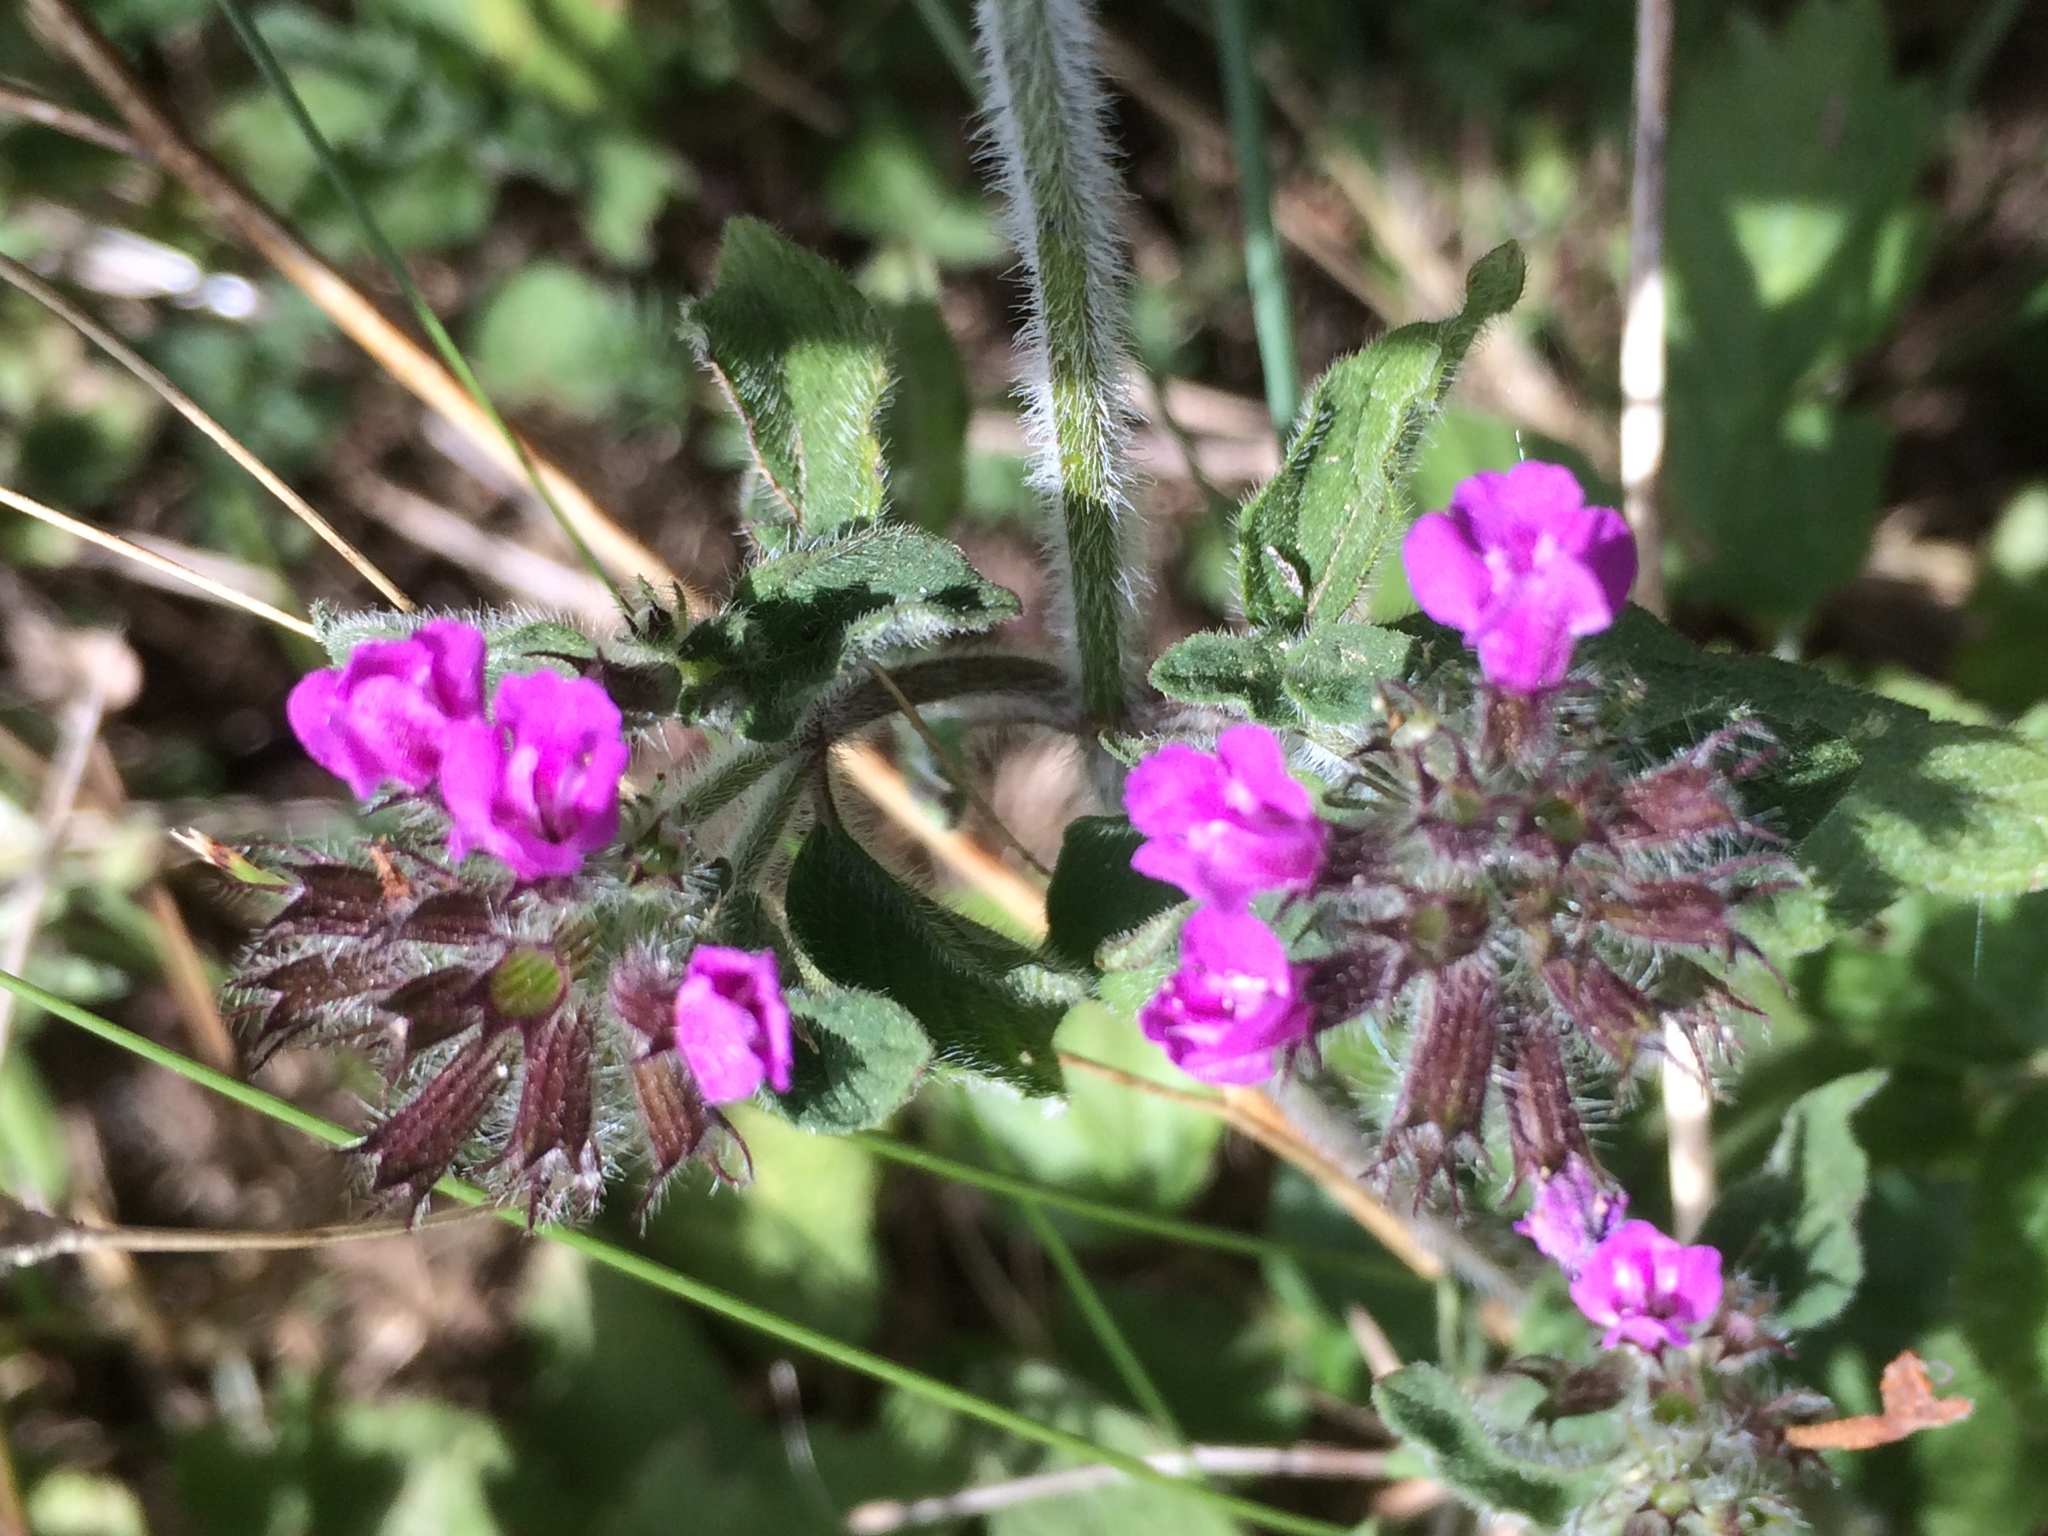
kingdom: Plantae
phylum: Tracheophyta
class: Magnoliopsida
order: Lamiales
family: Lamiaceae
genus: Clinopodium
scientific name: Clinopodium vulgare
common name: Wild basil
